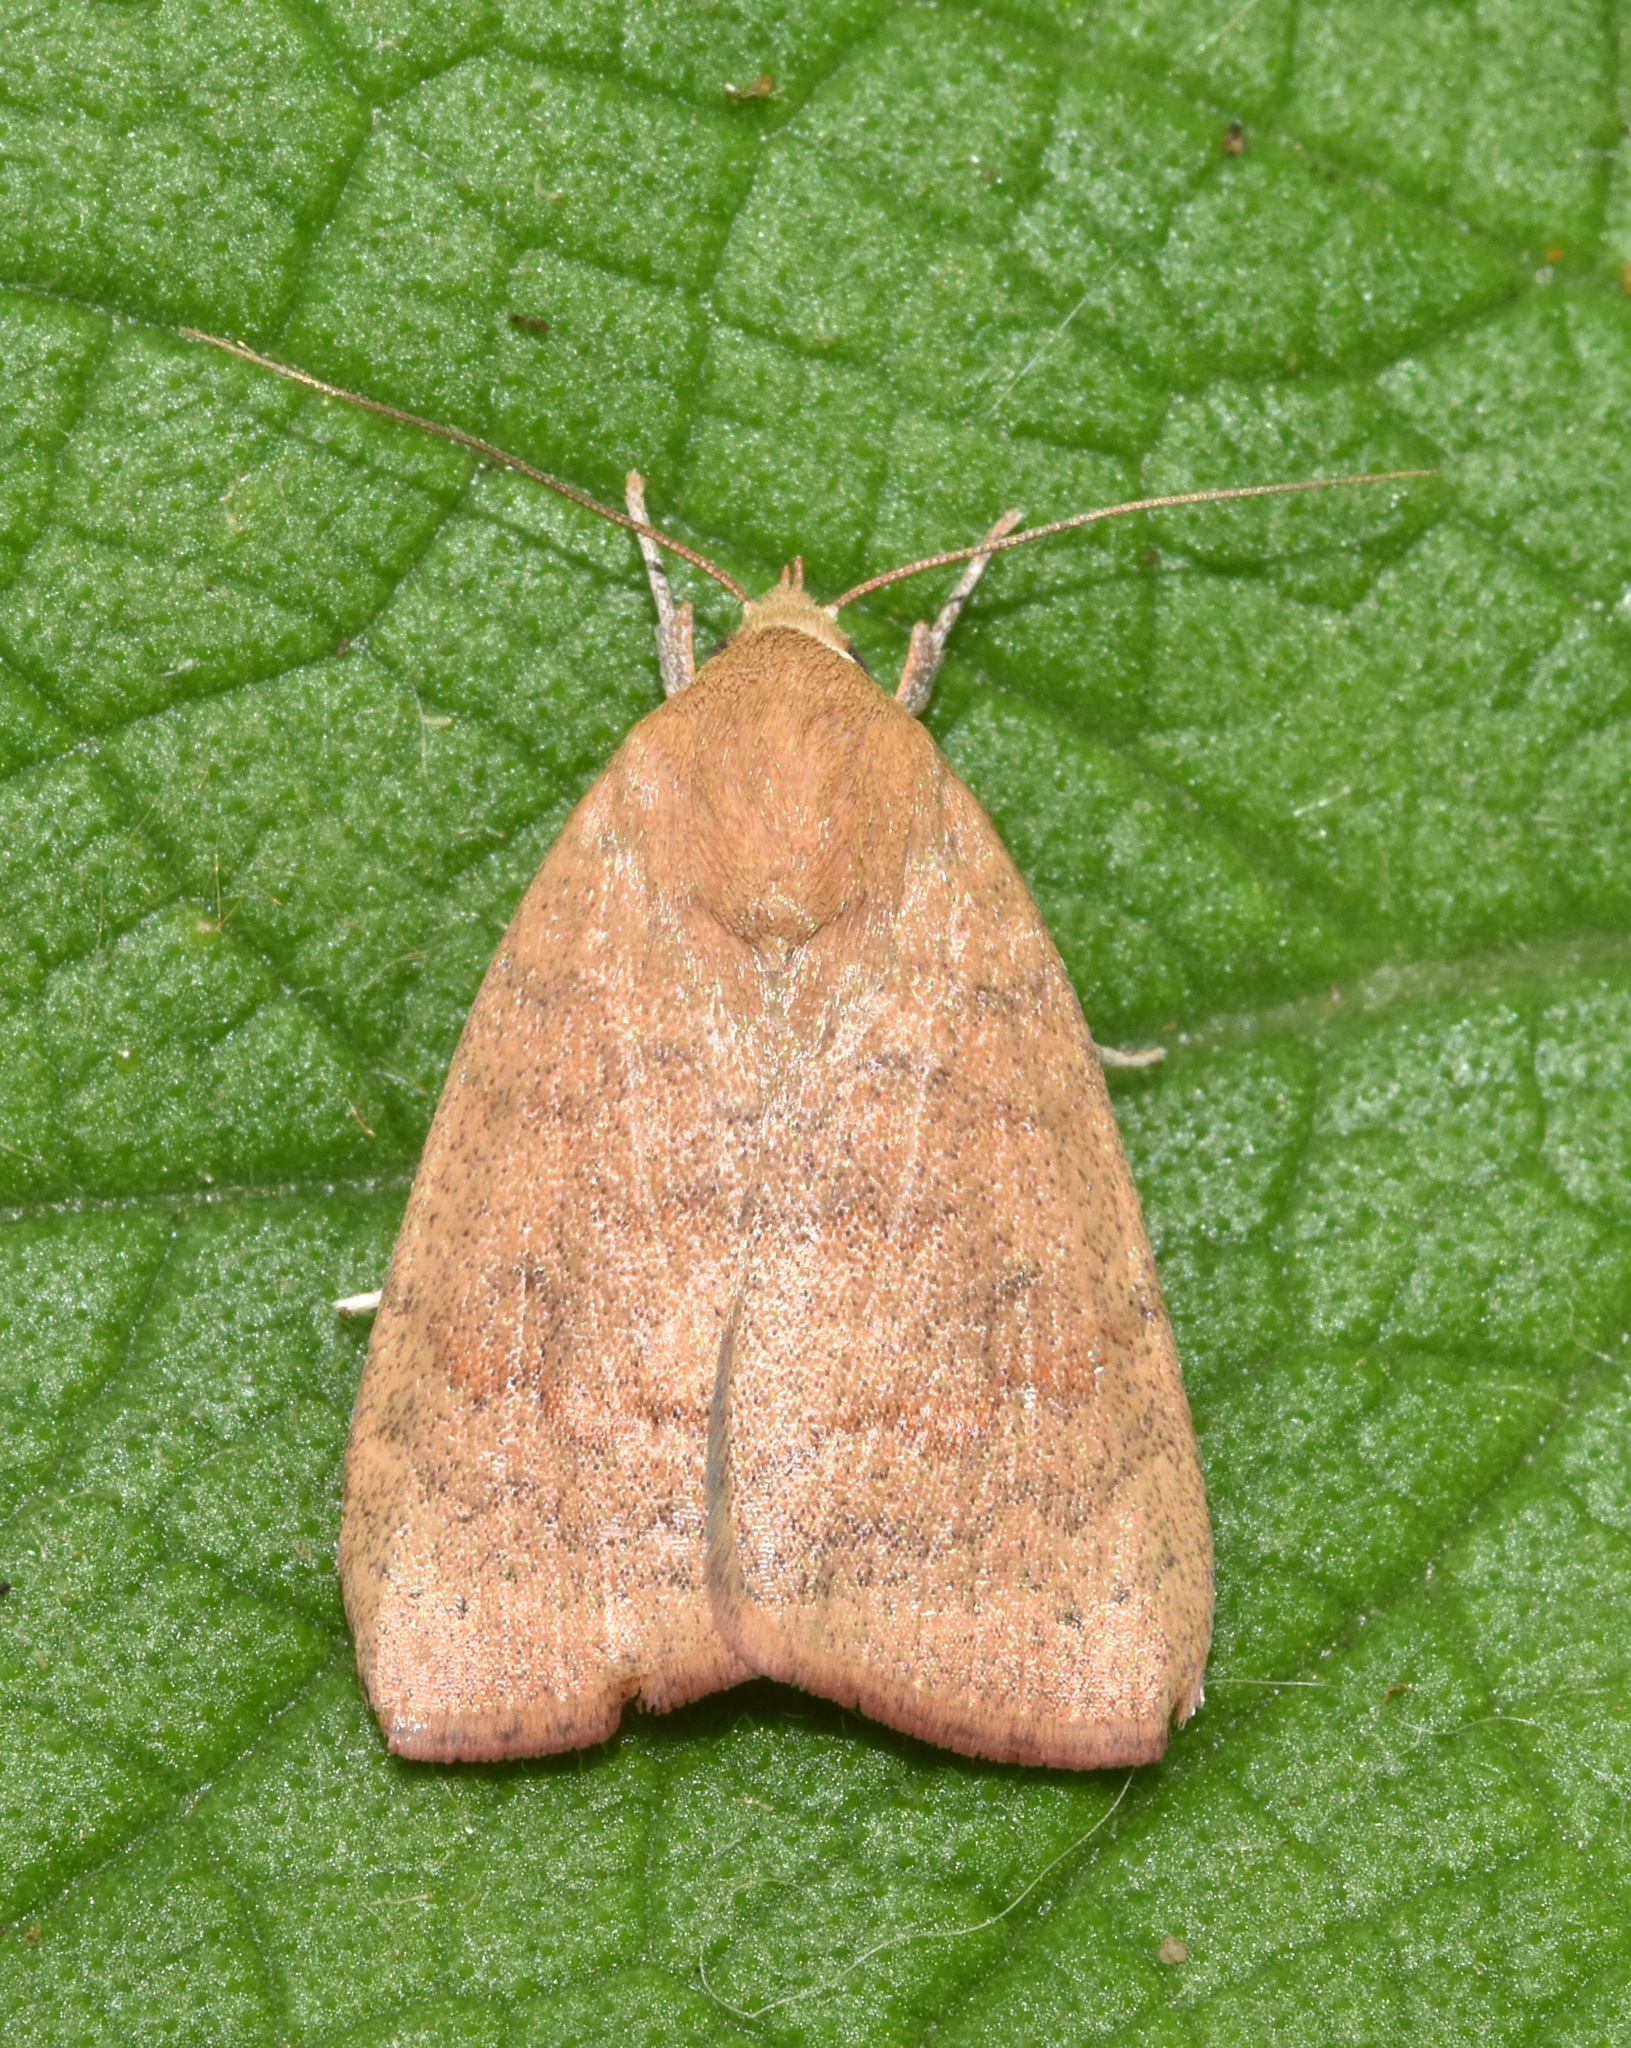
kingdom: Animalia
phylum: Arthropoda
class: Insecta
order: Lepidoptera
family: Nolidae
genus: Maurilia
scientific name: Maurilia arcuata
